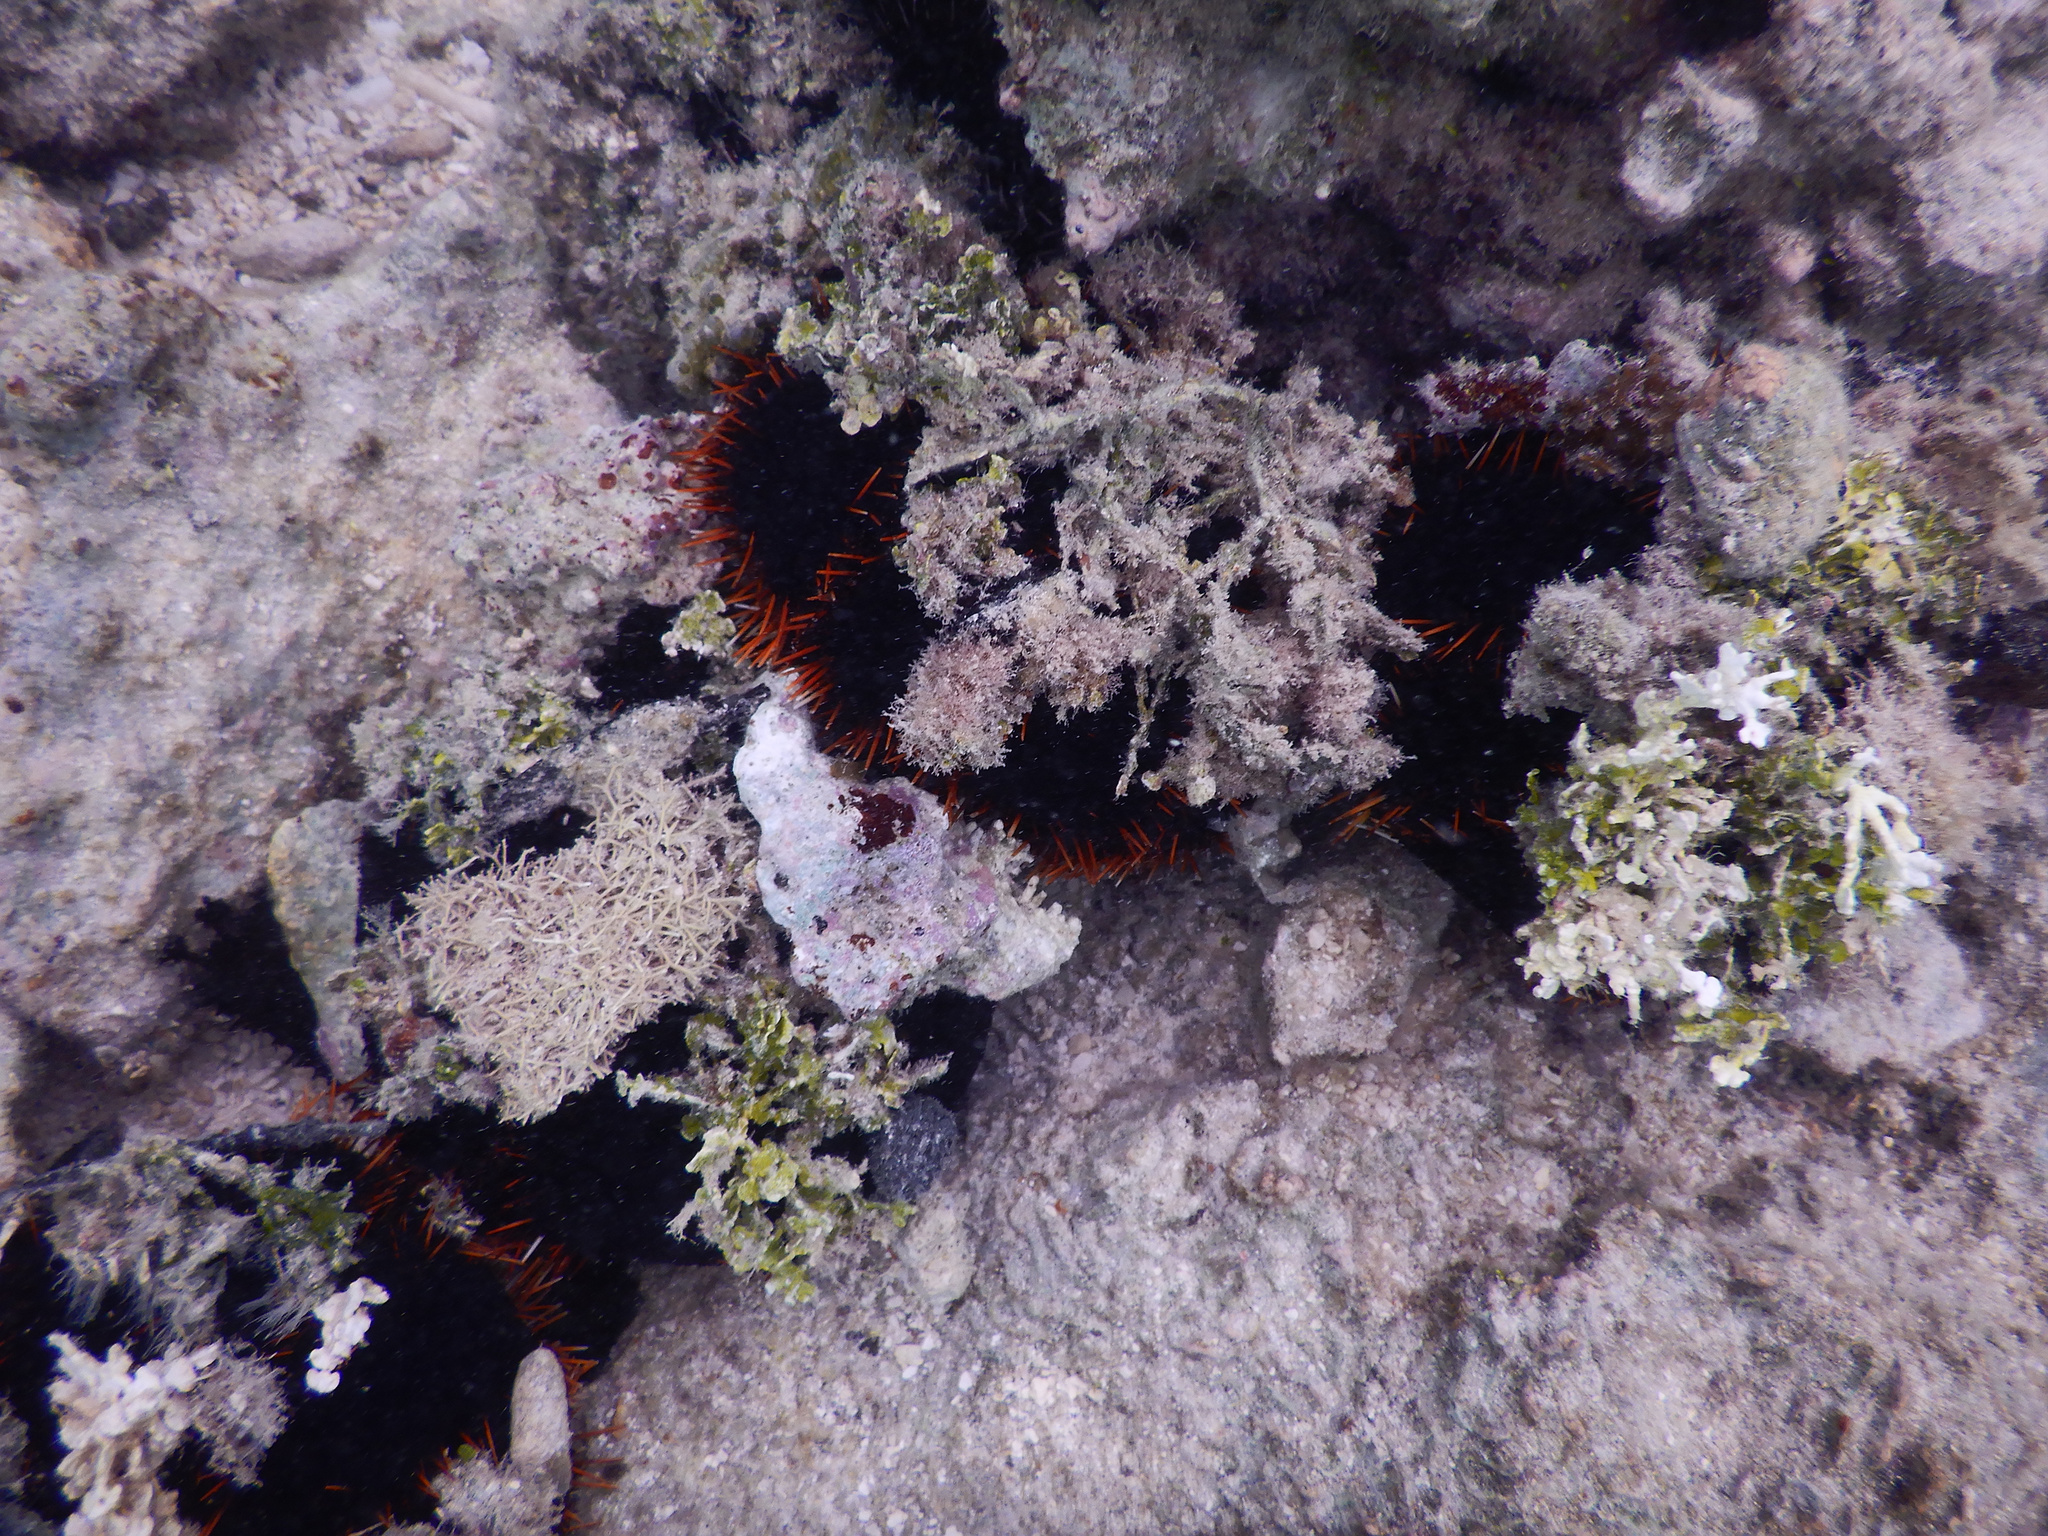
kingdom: Animalia
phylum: Echinodermata
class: Echinoidea
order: Camarodonta
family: Toxopneustidae
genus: Tripneustes
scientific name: Tripneustes gratilla
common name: Bischofsmützenseeigel
